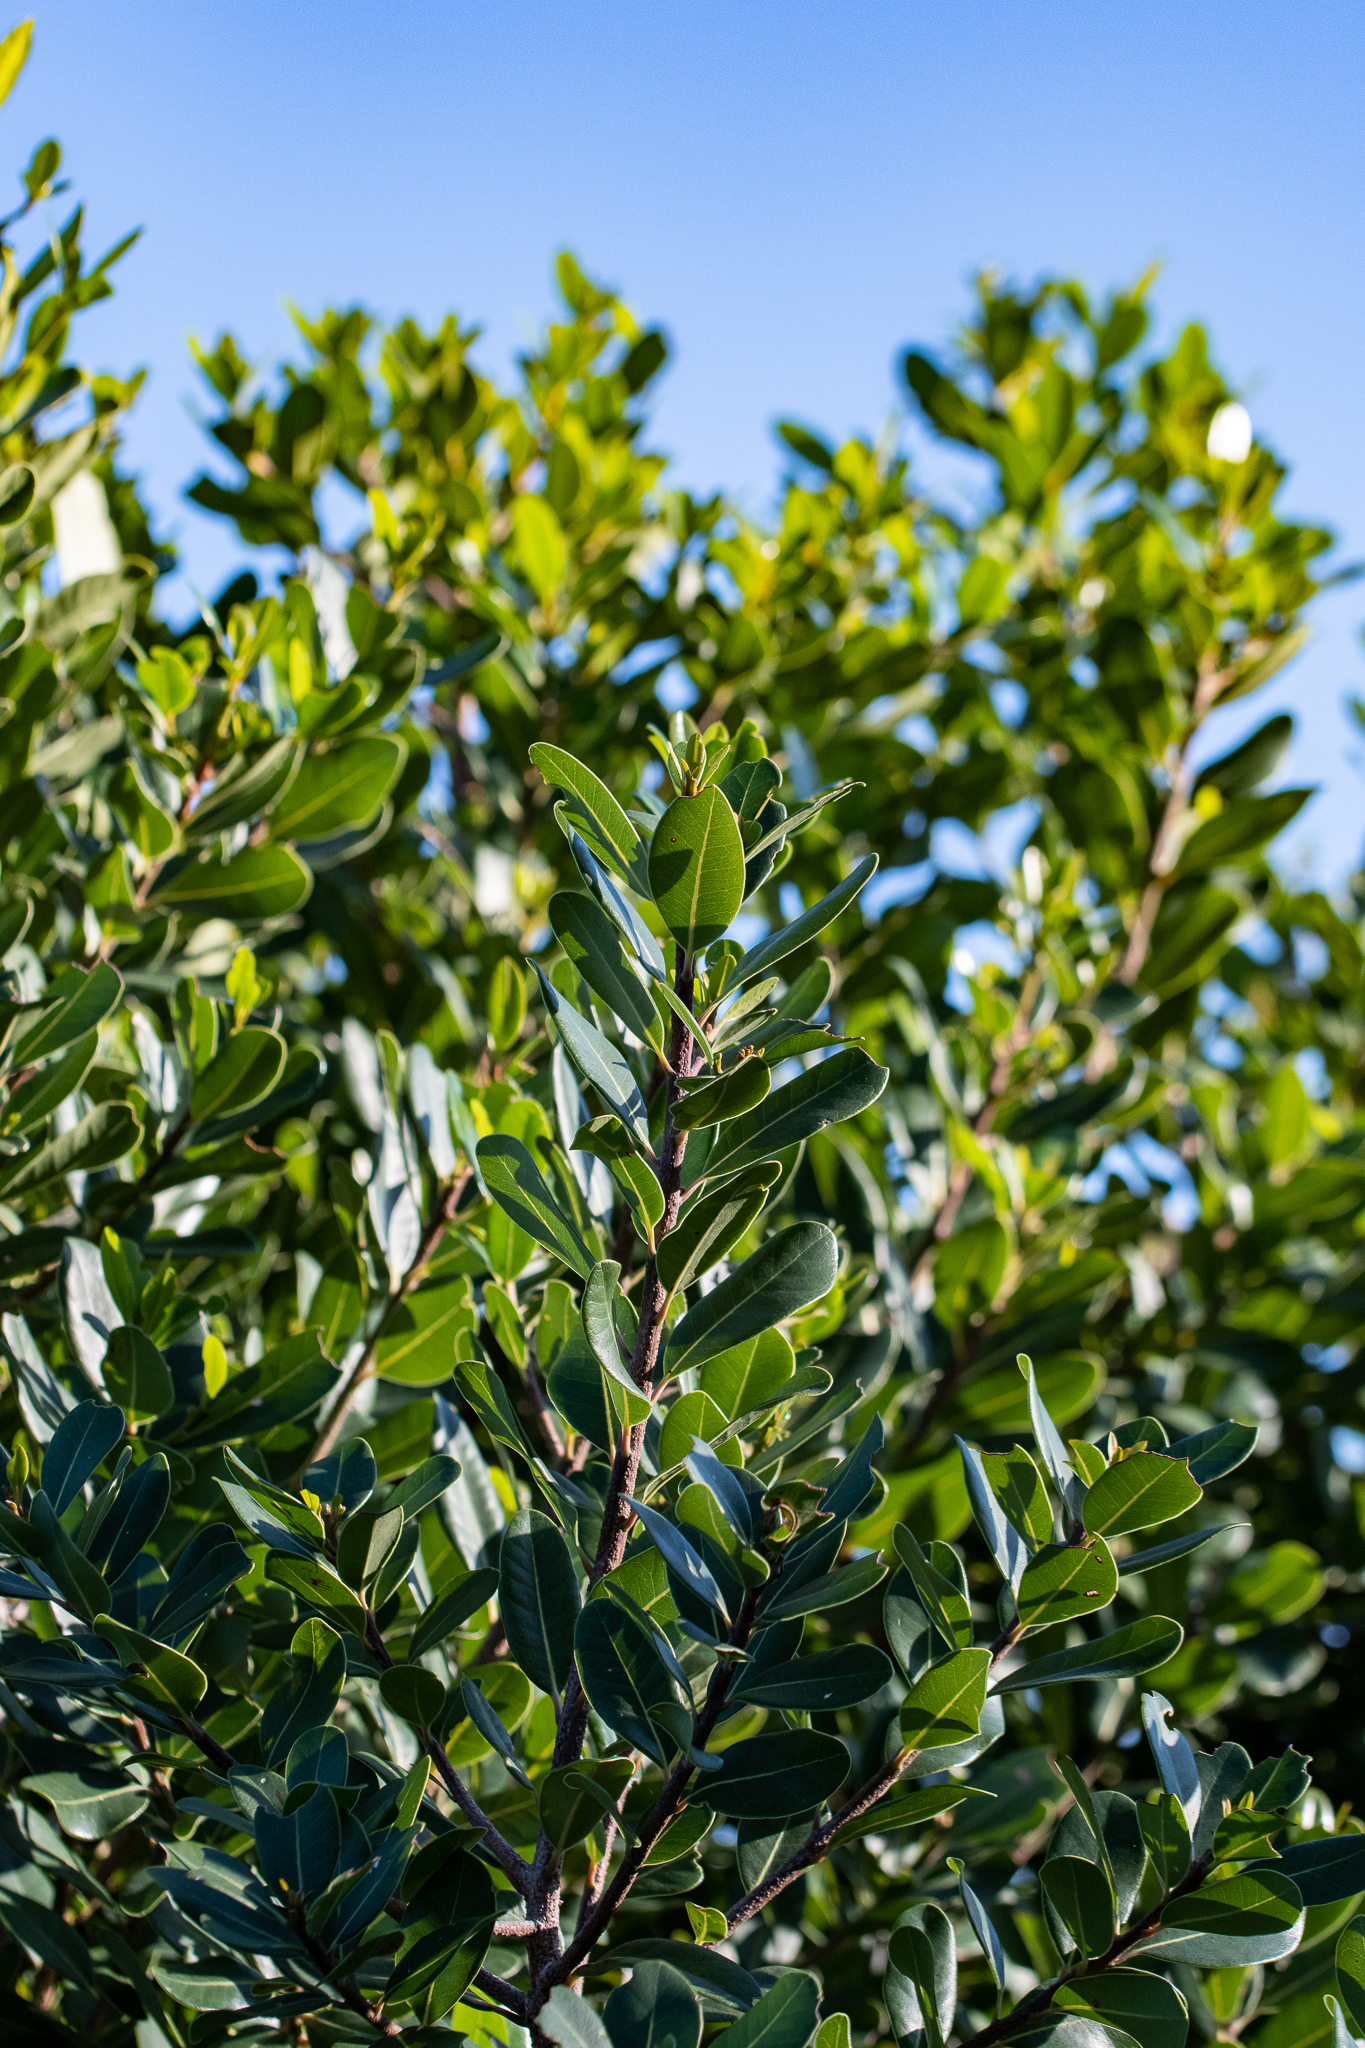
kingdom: Plantae
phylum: Tracheophyta
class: Magnoliopsida
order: Ericales
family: Sapotaceae
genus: Sideroxylon
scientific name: Sideroxylon inerme
